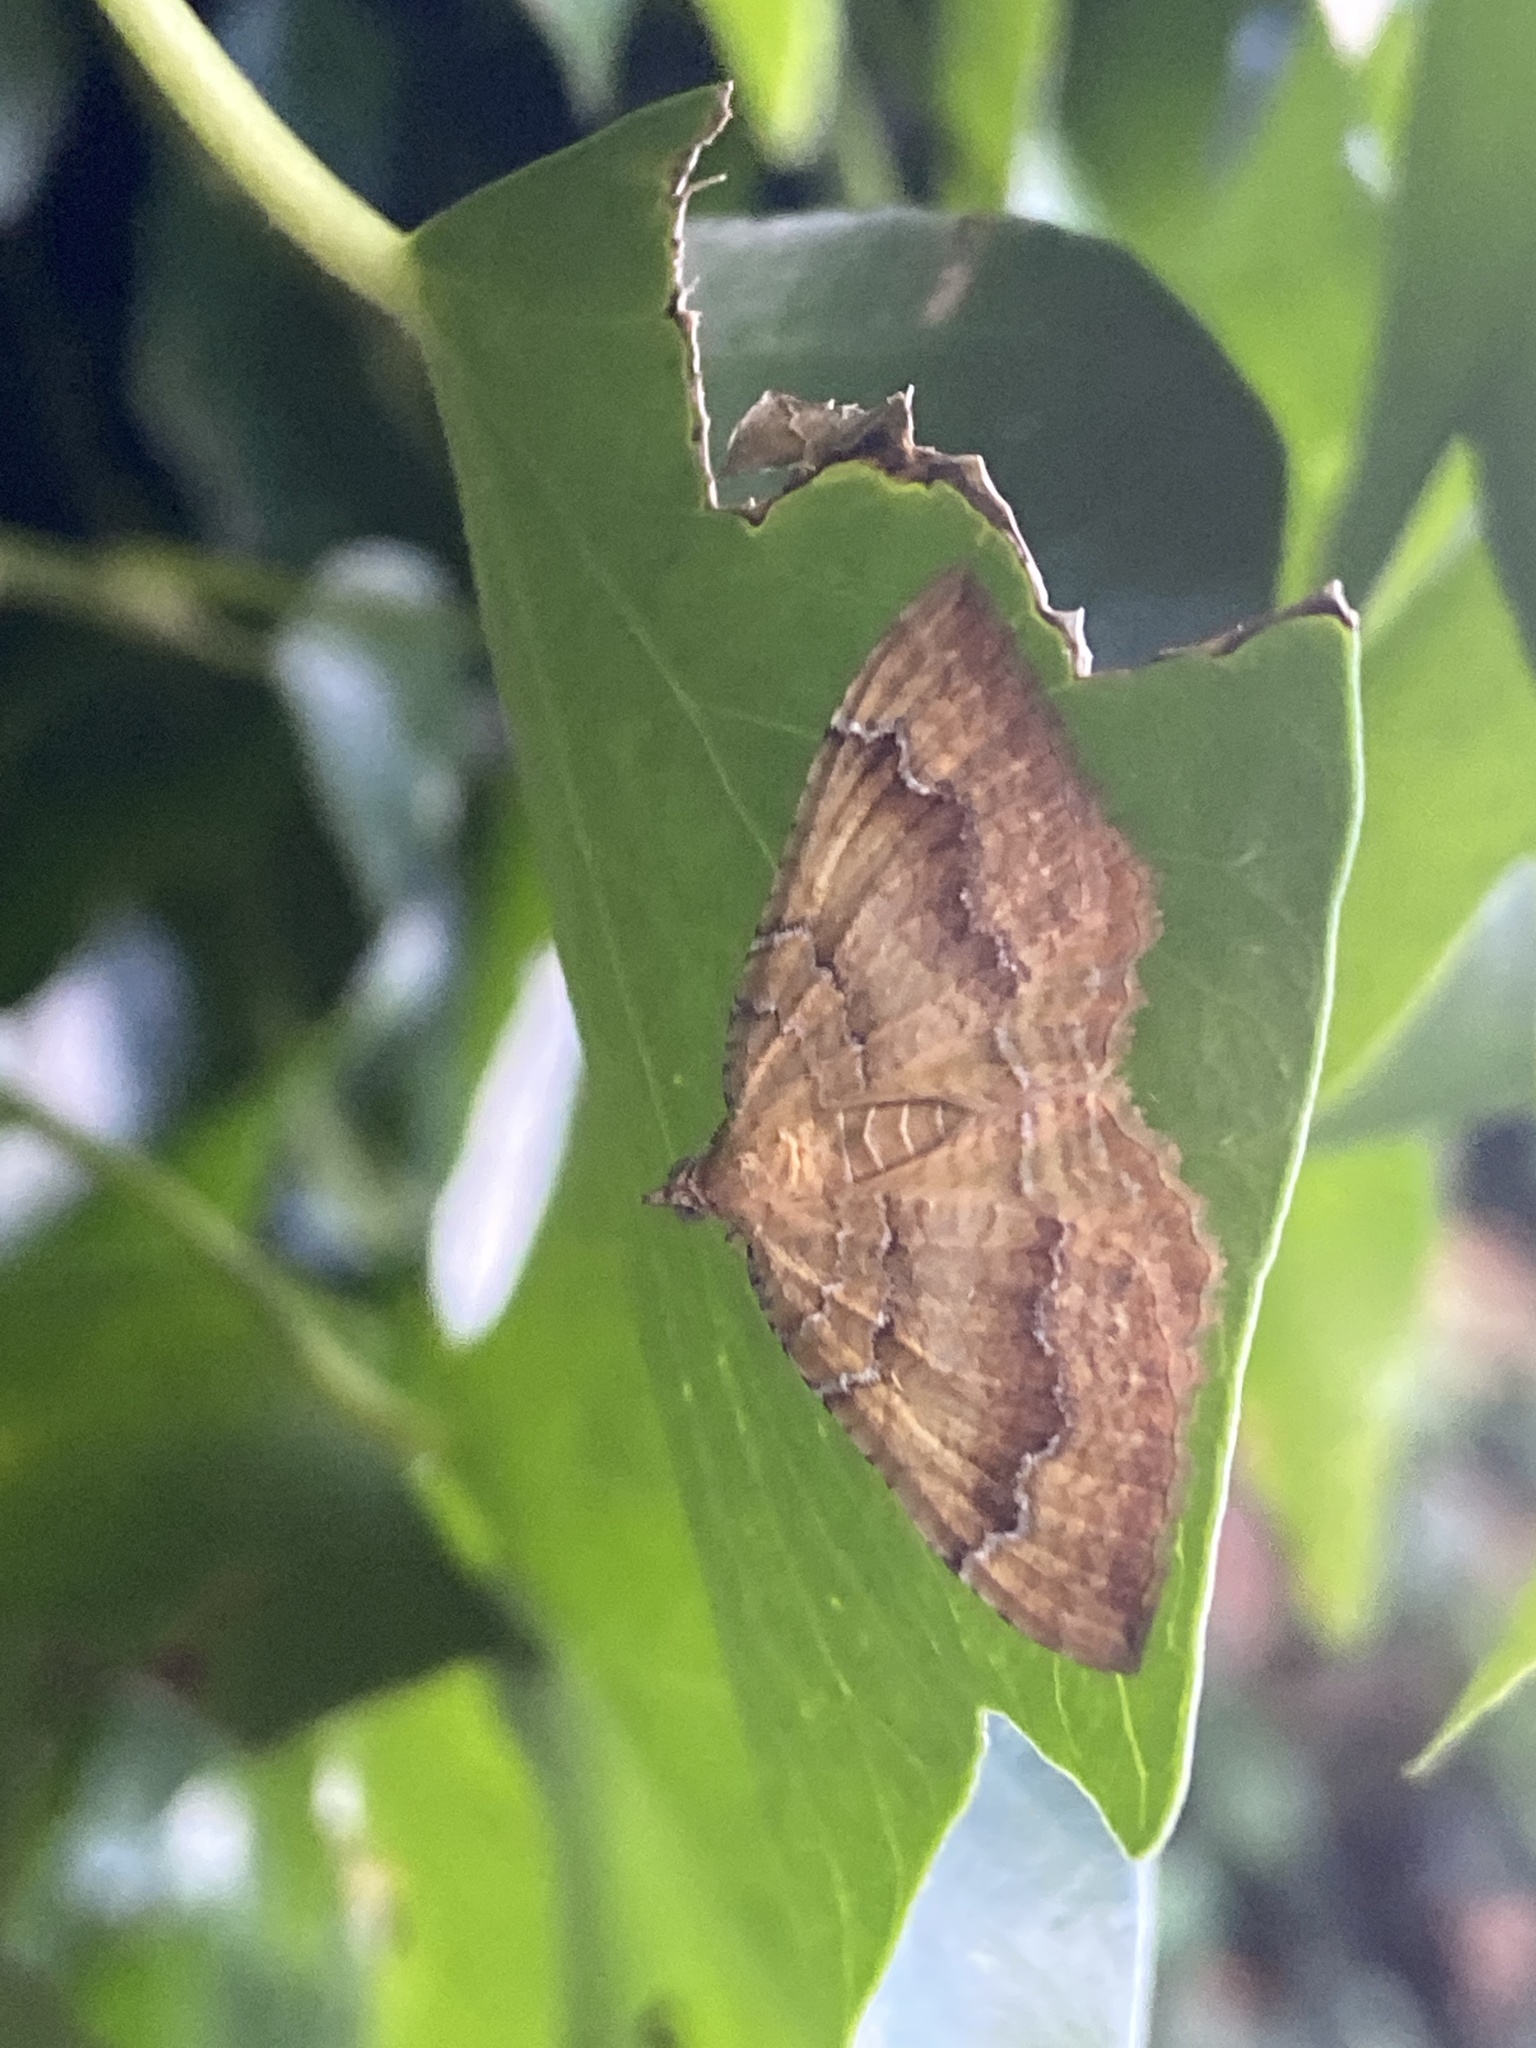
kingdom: Animalia
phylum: Arthropoda
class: Insecta
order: Lepidoptera
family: Geometridae
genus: Camptogramma
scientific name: Camptogramma bilineata
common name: Yellow shell
